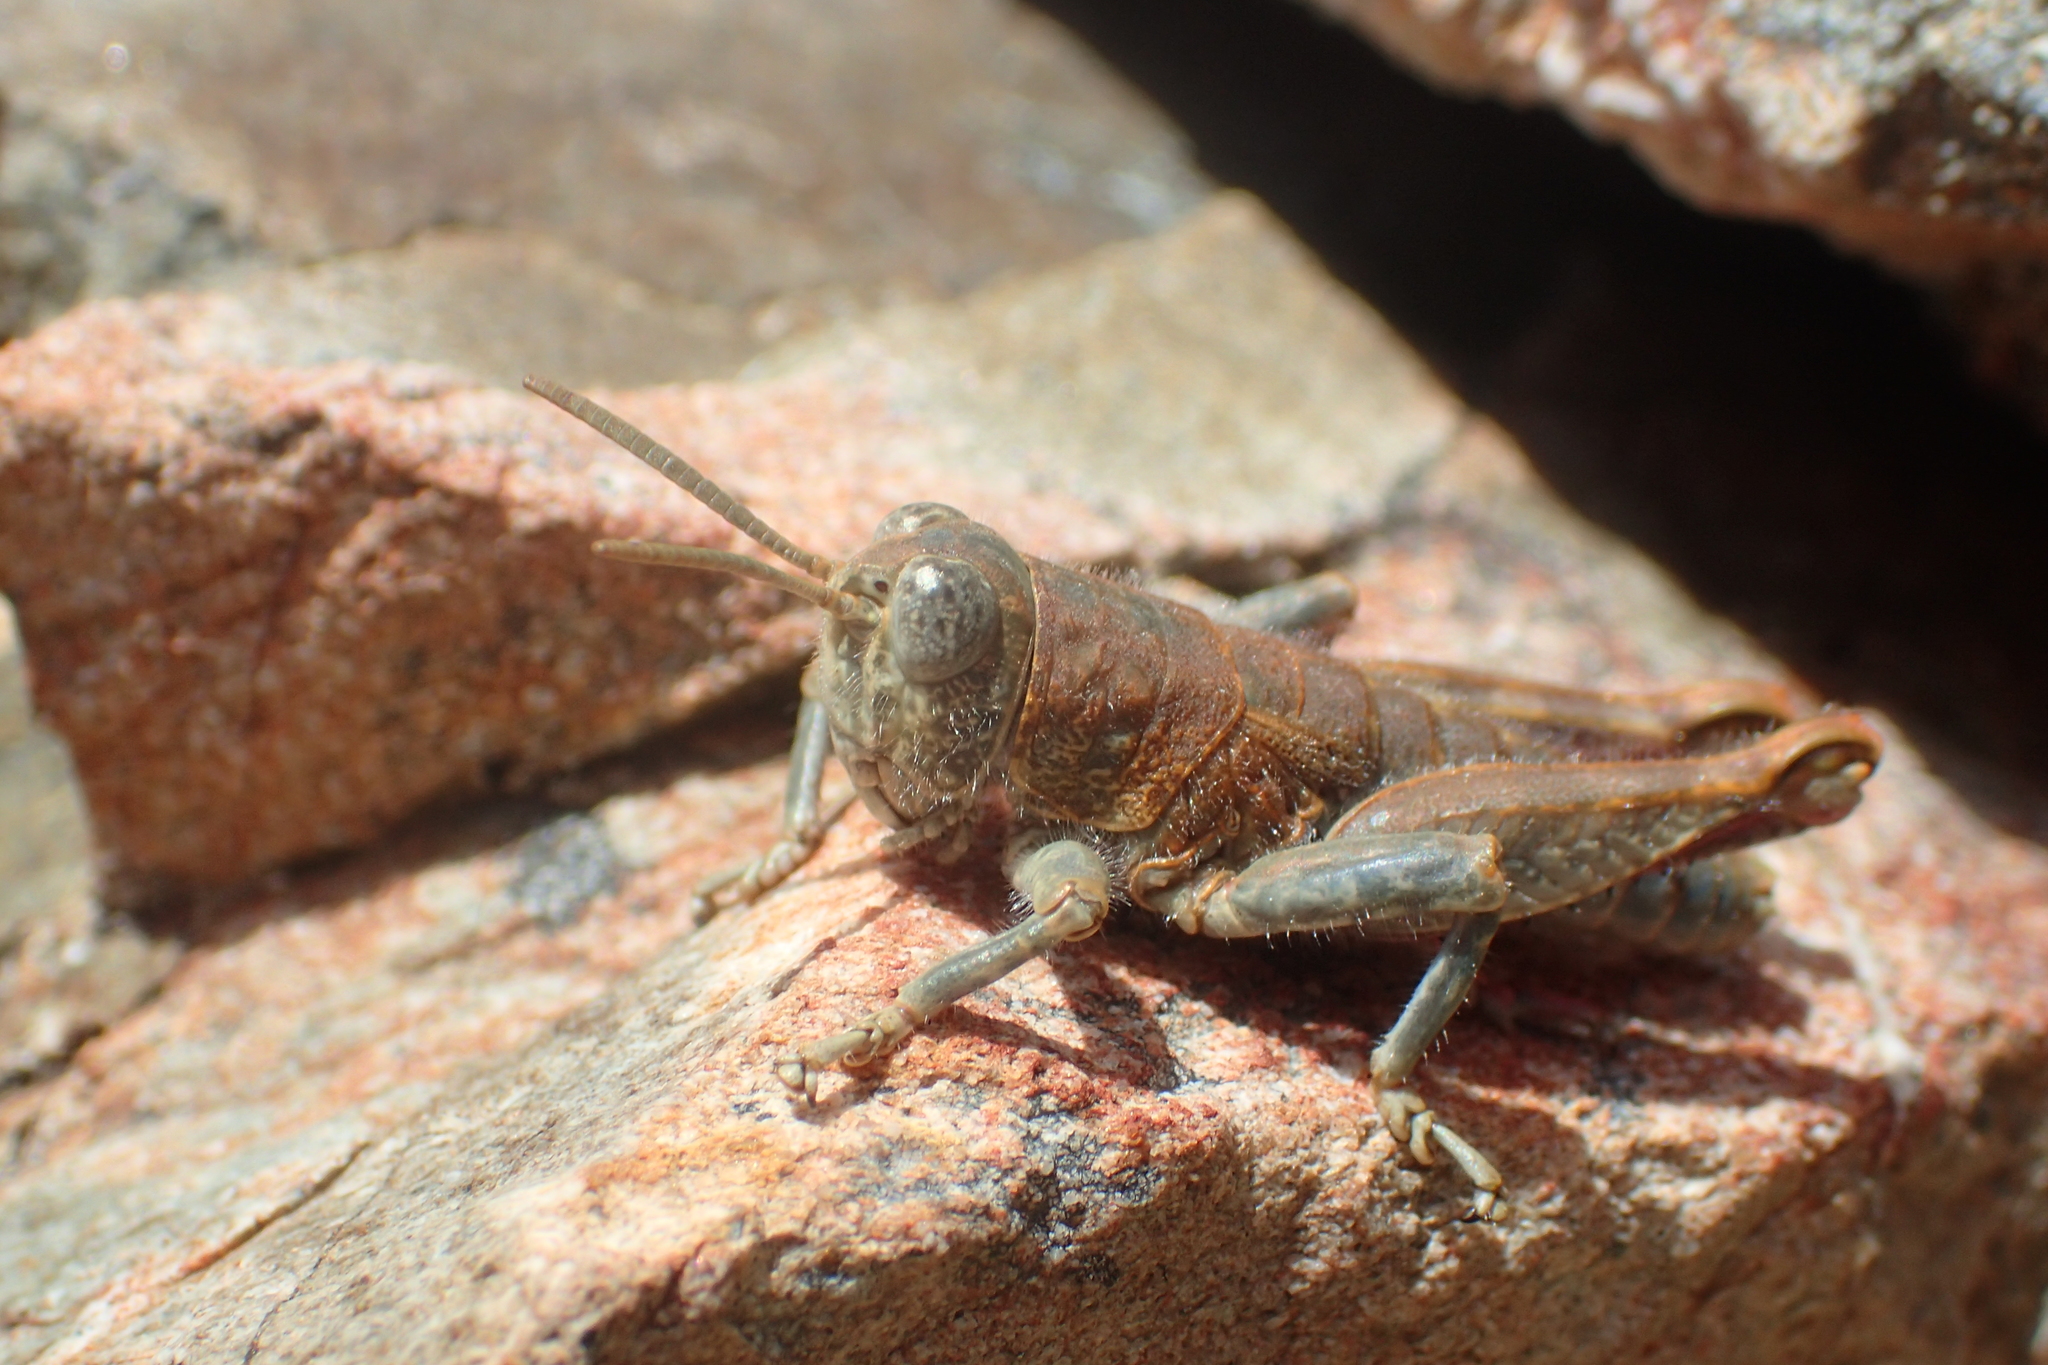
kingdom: Animalia
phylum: Arthropoda
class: Insecta
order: Orthoptera
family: Acrididae
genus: Sigaus
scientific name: Sigaus
